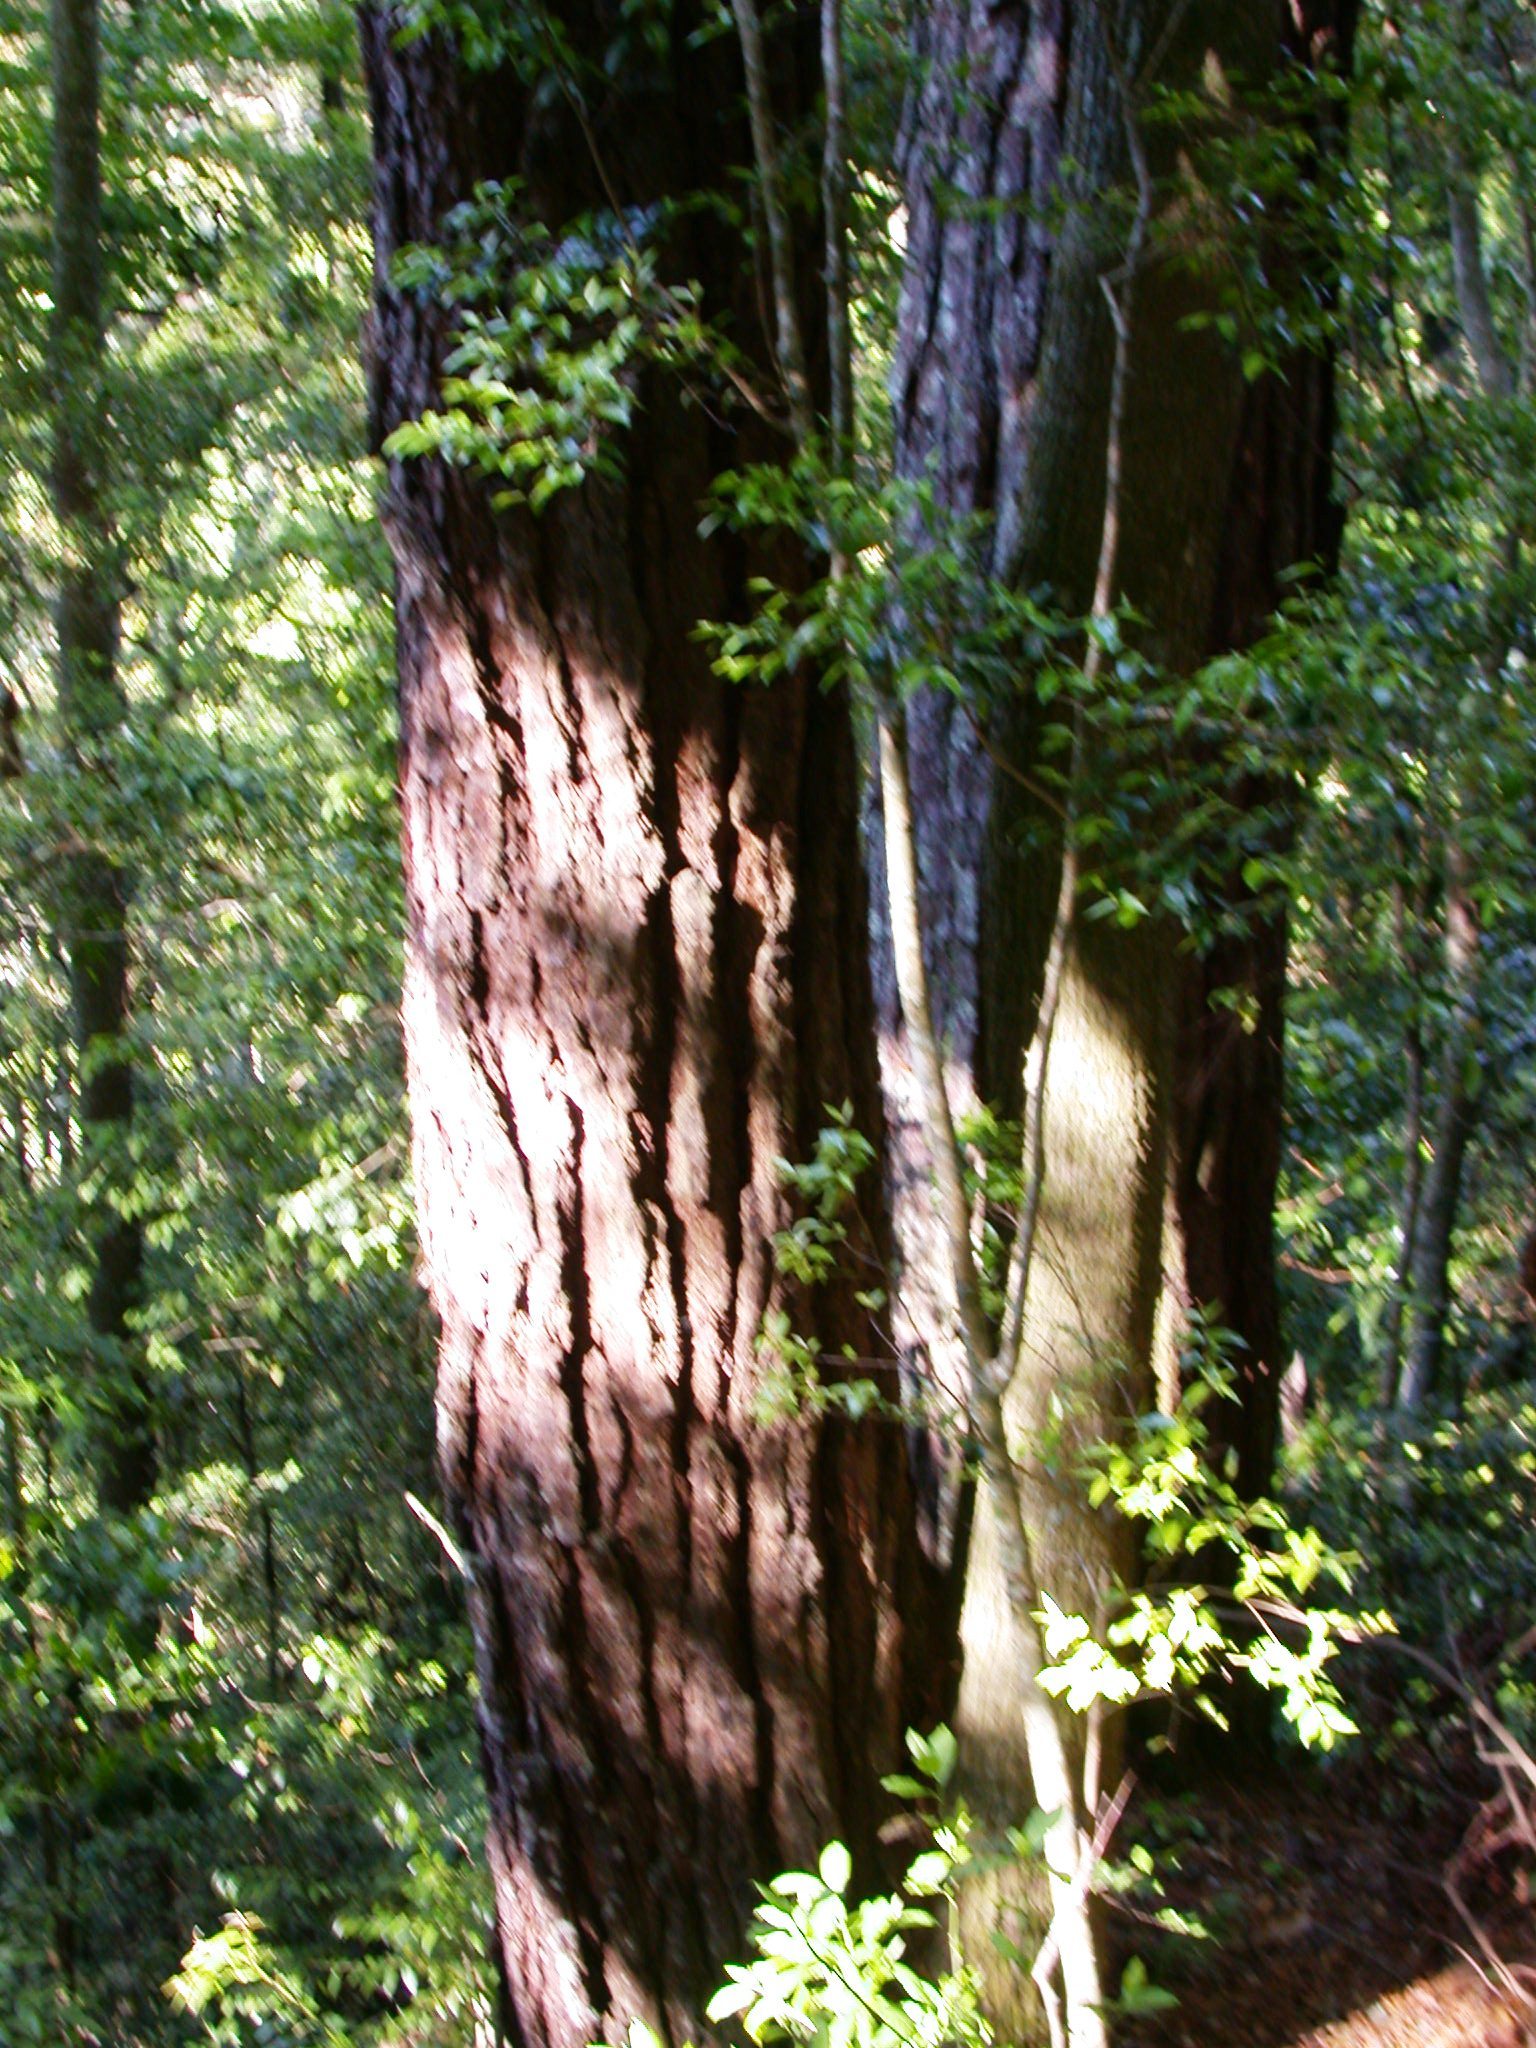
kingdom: Plantae
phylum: Tracheophyta
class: Pinopsida
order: Pinales
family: Pinaceae
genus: Pinus
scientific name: Pinus strobus
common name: Weymouth pine
